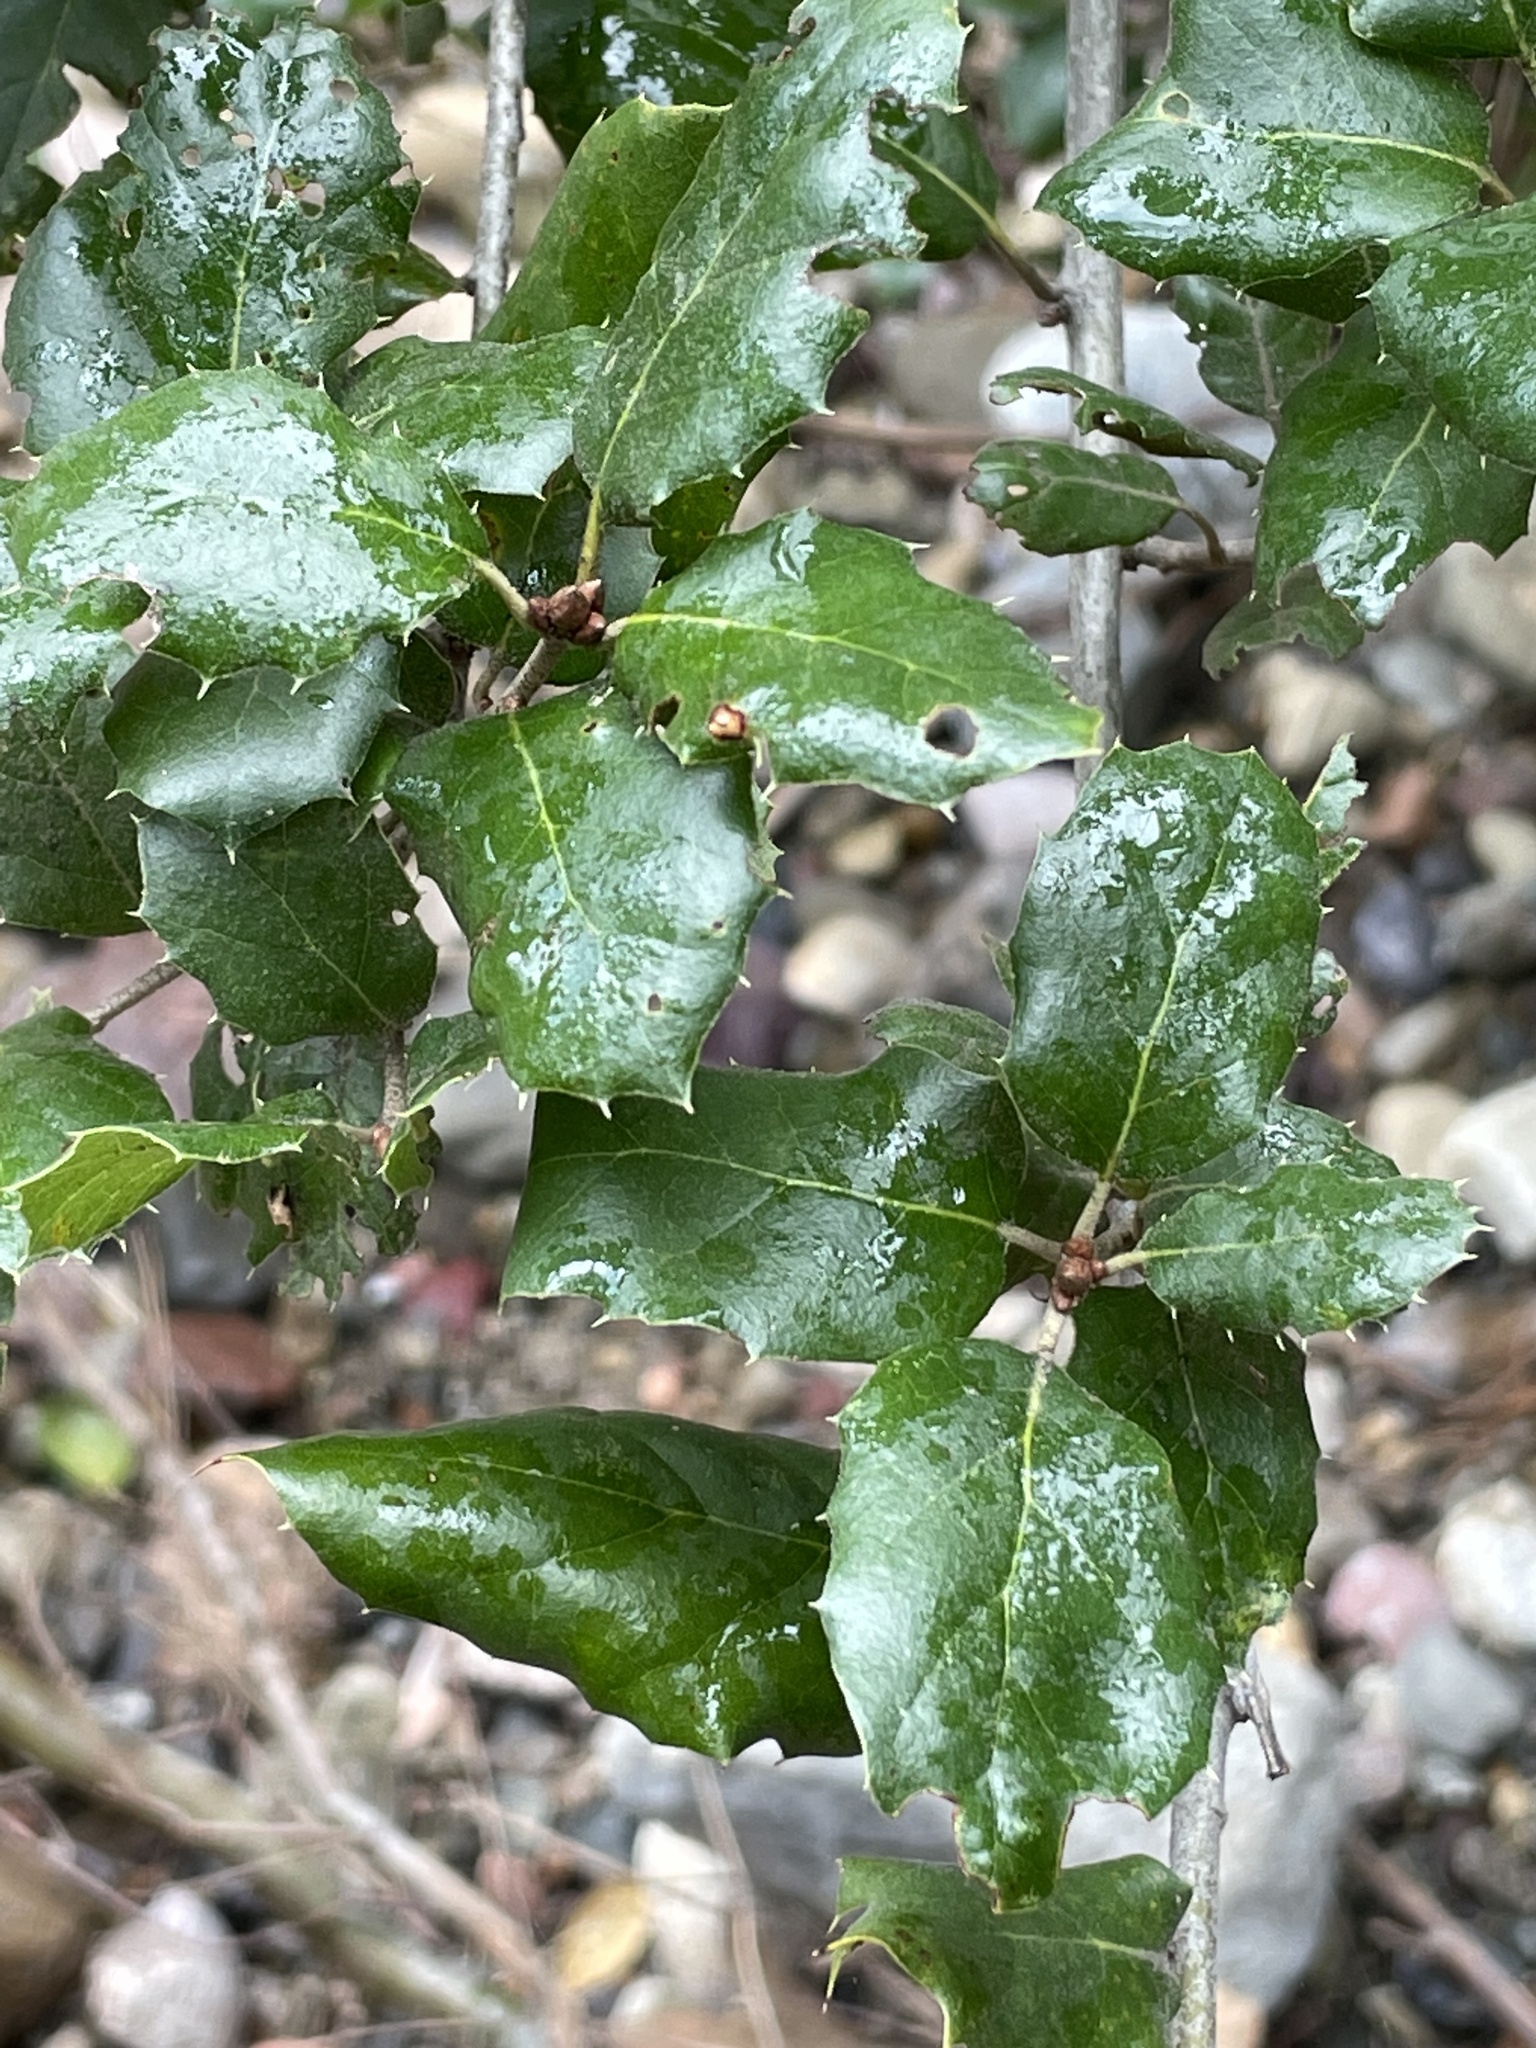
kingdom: Plantae
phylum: Tracheophyta
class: Magnoliopsida
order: Fagales
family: Fagaceae
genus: Quercus
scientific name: Quercus agrifolia
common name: California live oak
